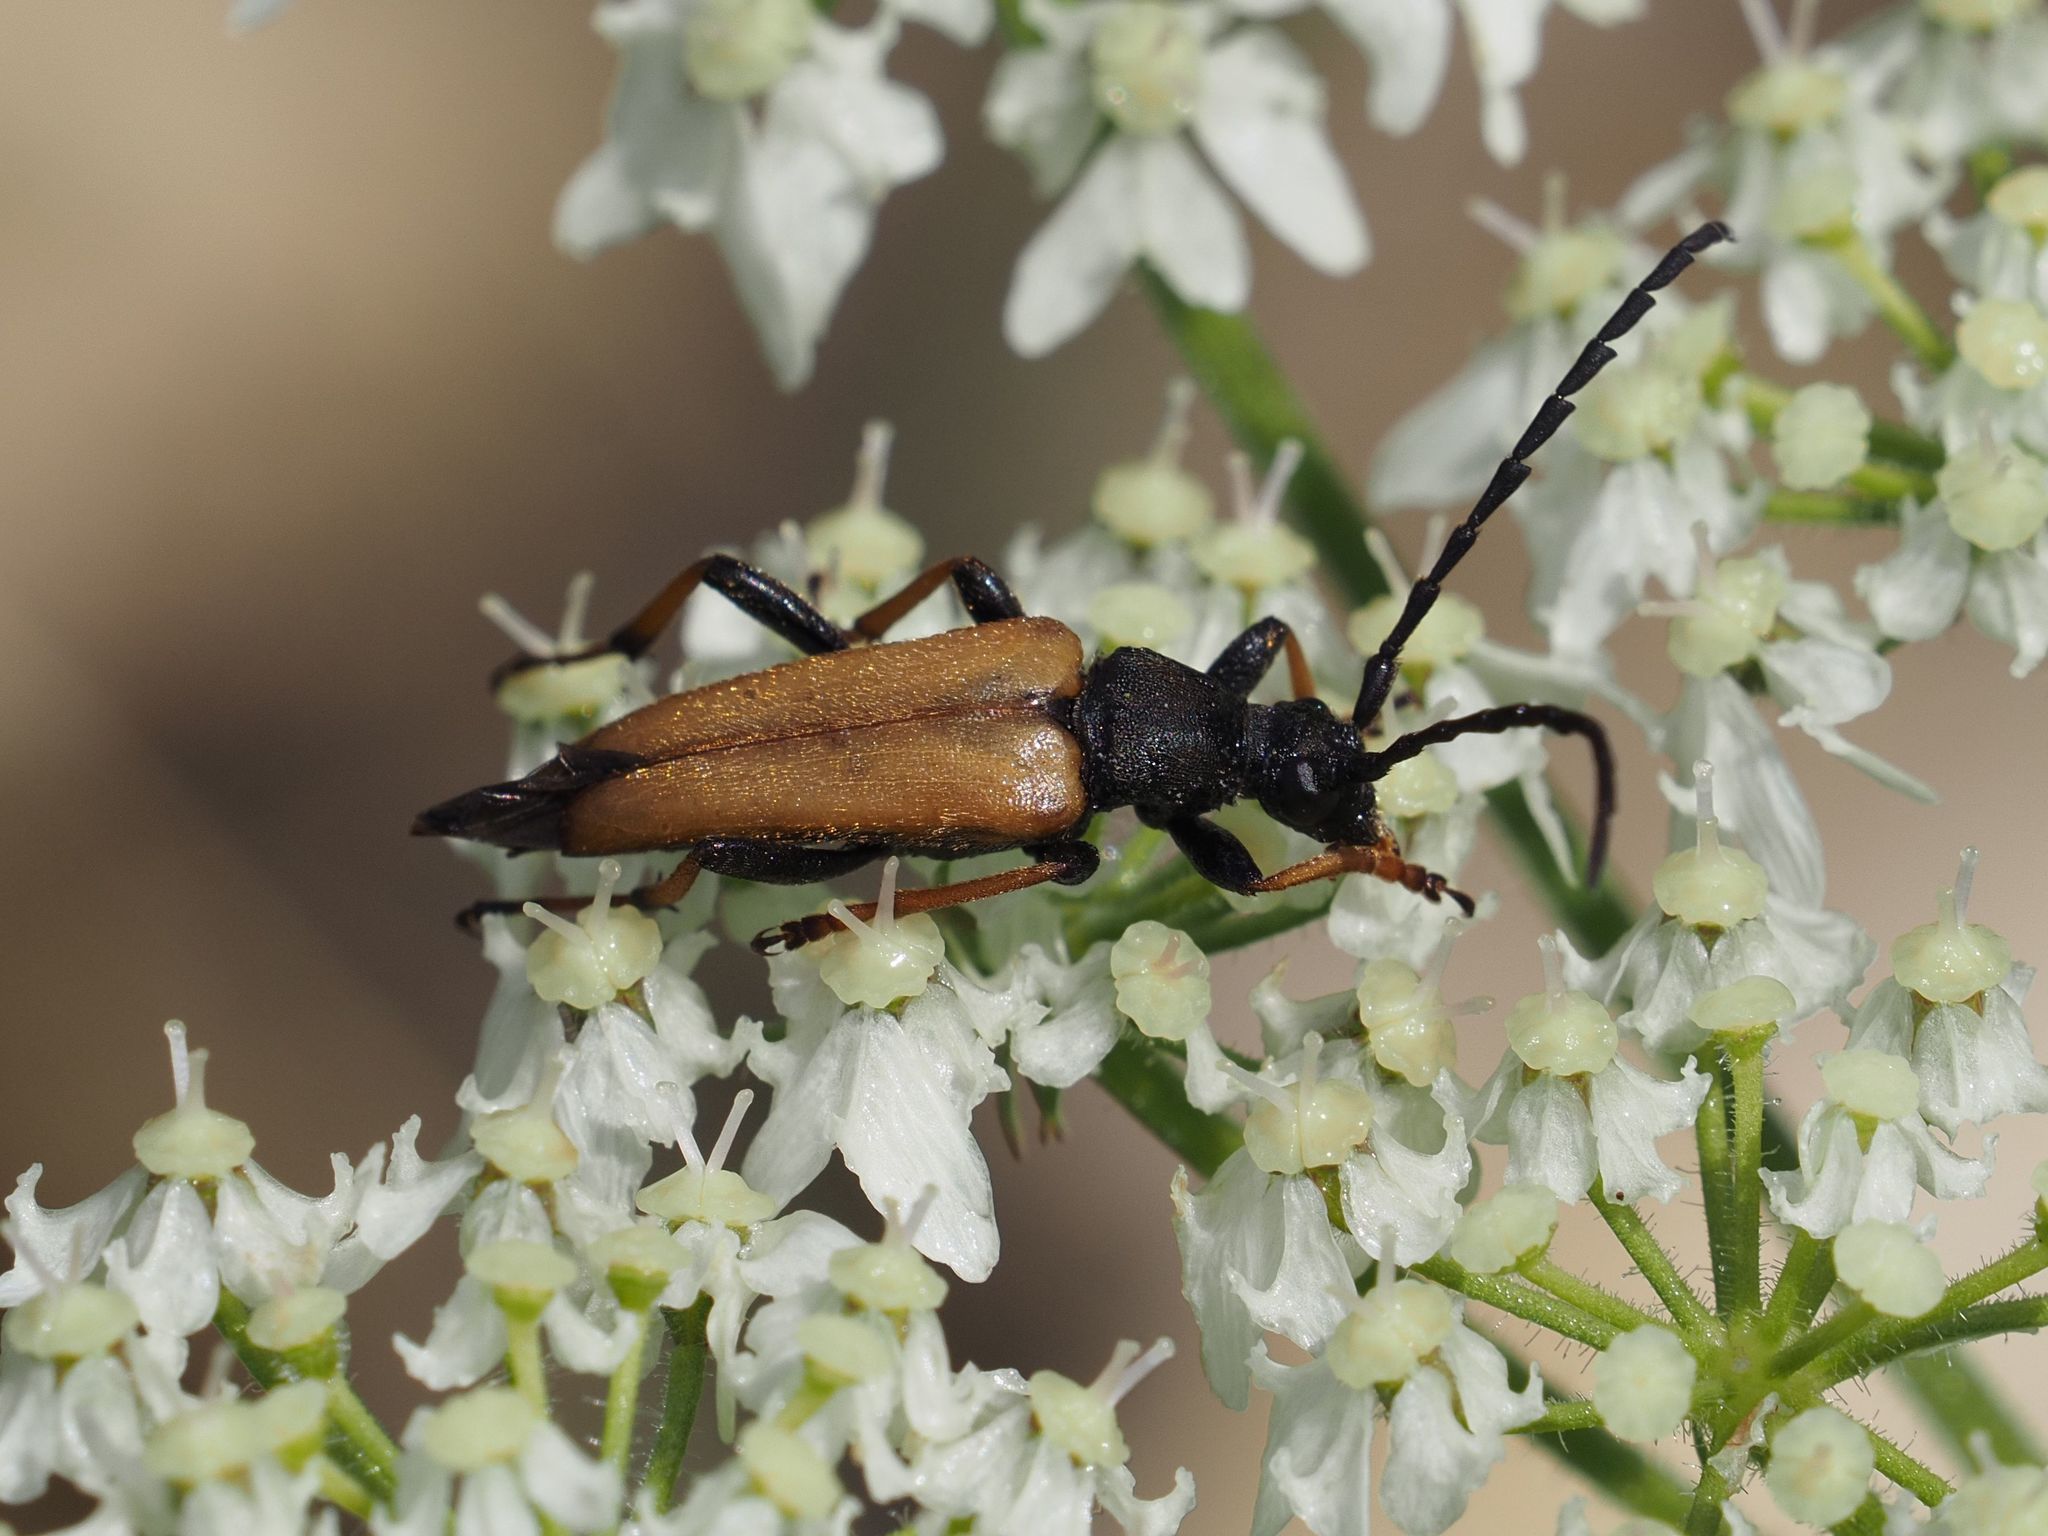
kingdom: Animalia
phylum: Arthropoda
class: Insecta
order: Coleoptera
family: Cerambycidae
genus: Stictoleptura
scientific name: Stictoleptura rubra
